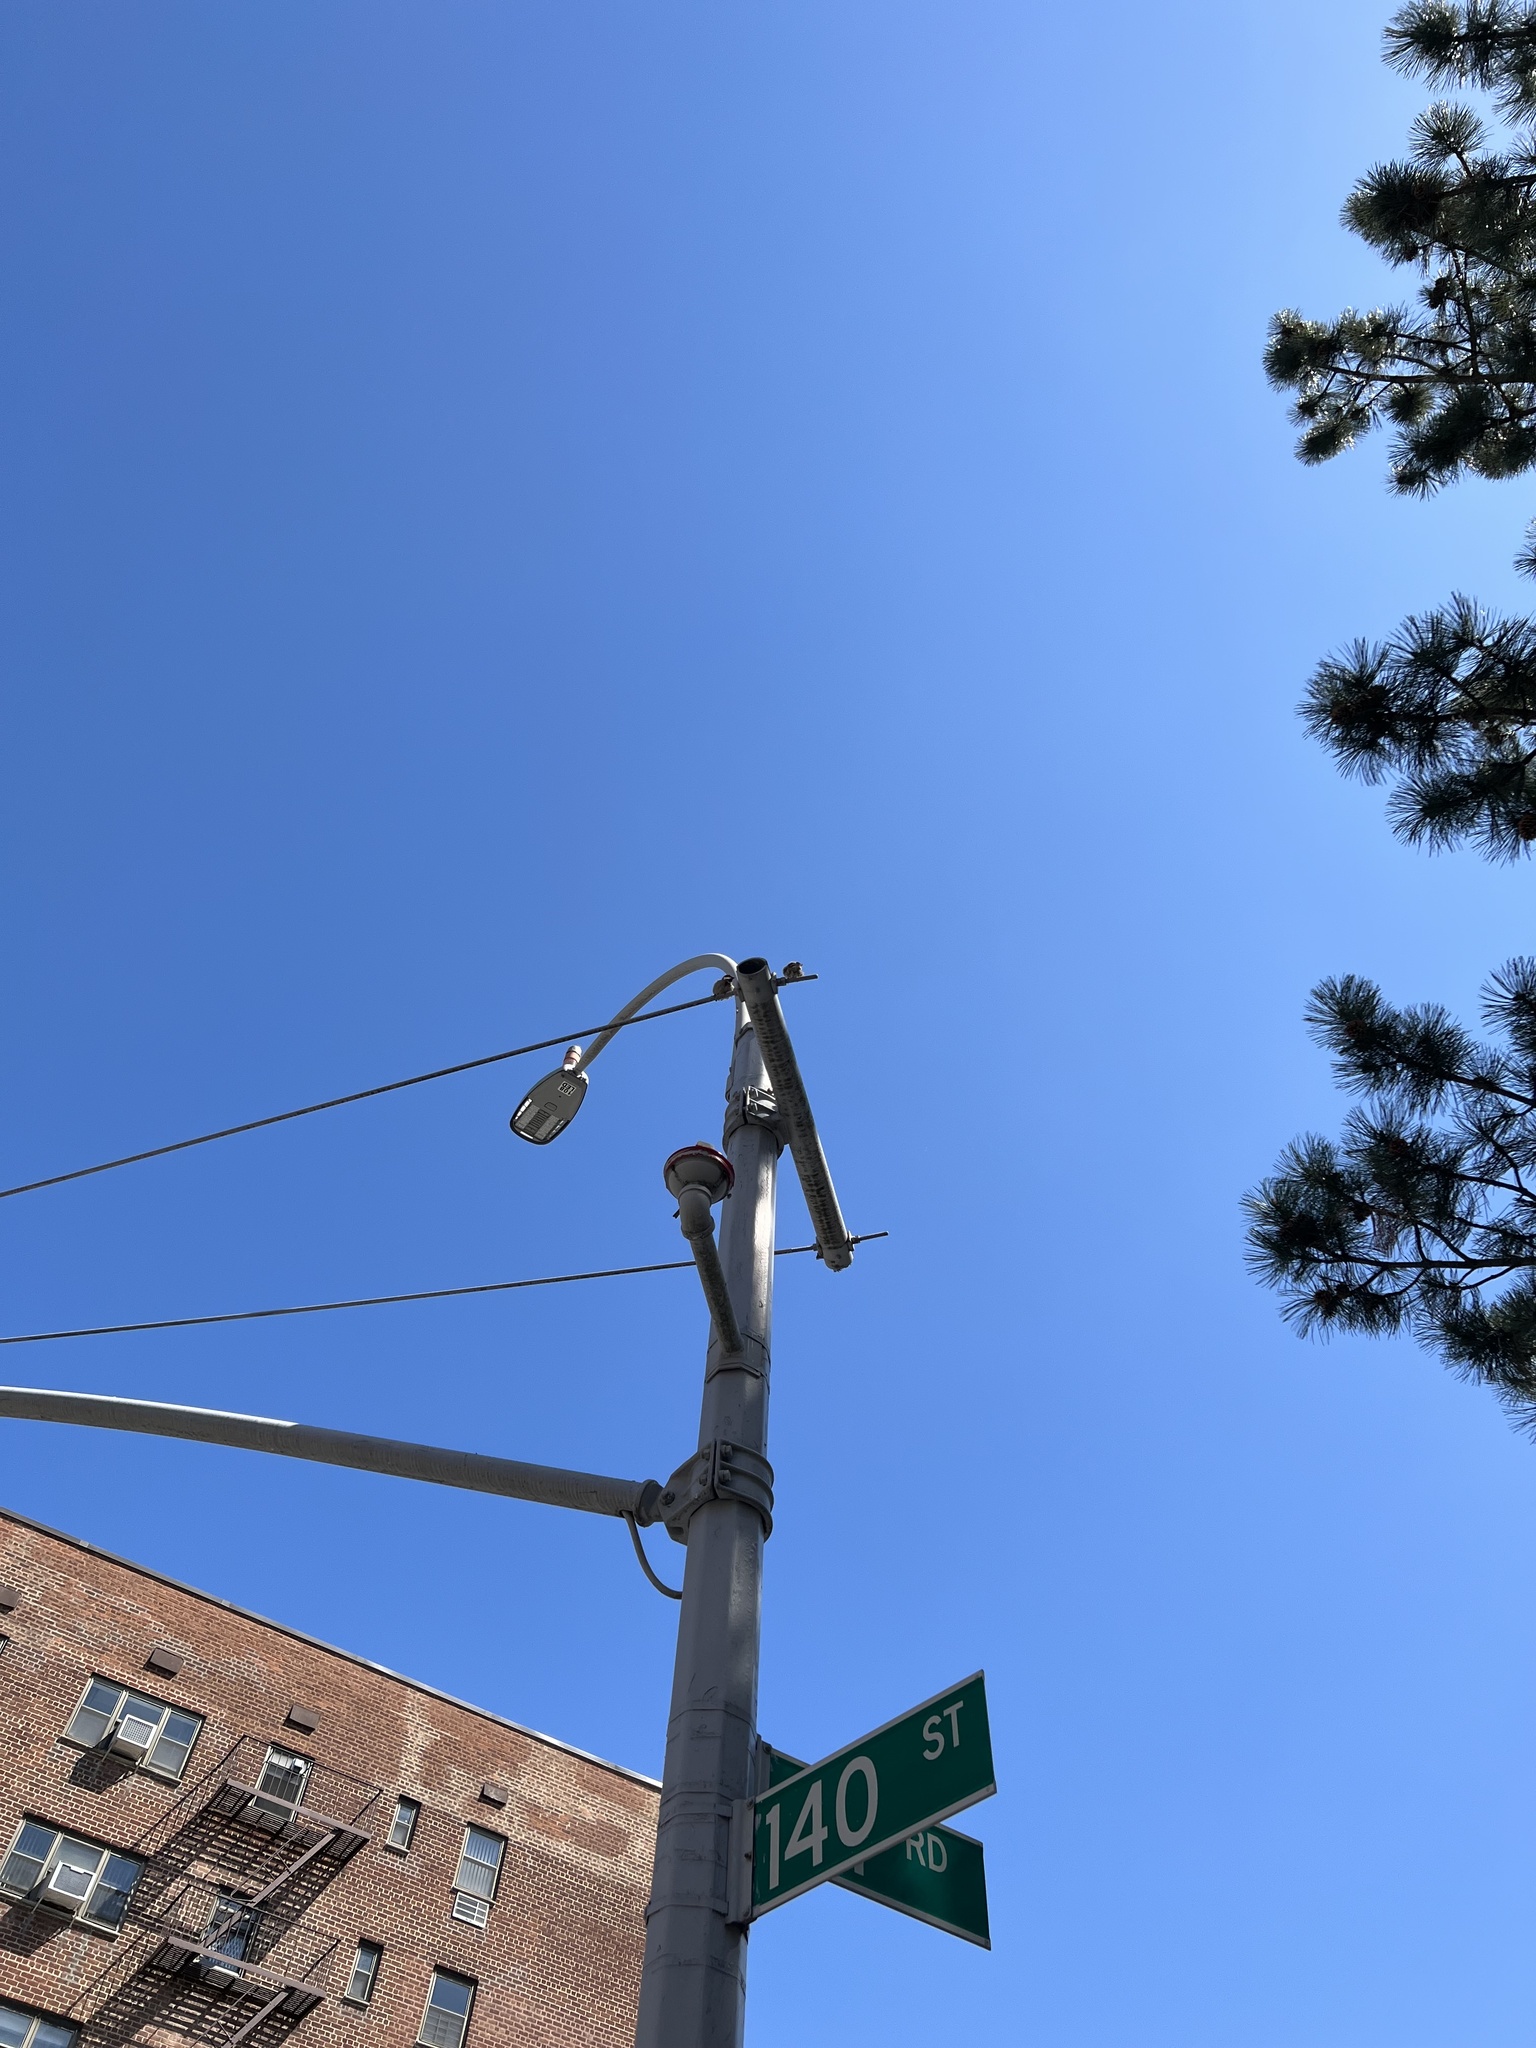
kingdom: Animalia
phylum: Chordata
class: Aves
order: Passeriformes
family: Passeridae
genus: Passer
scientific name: Passer domesticus
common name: House sparrow
